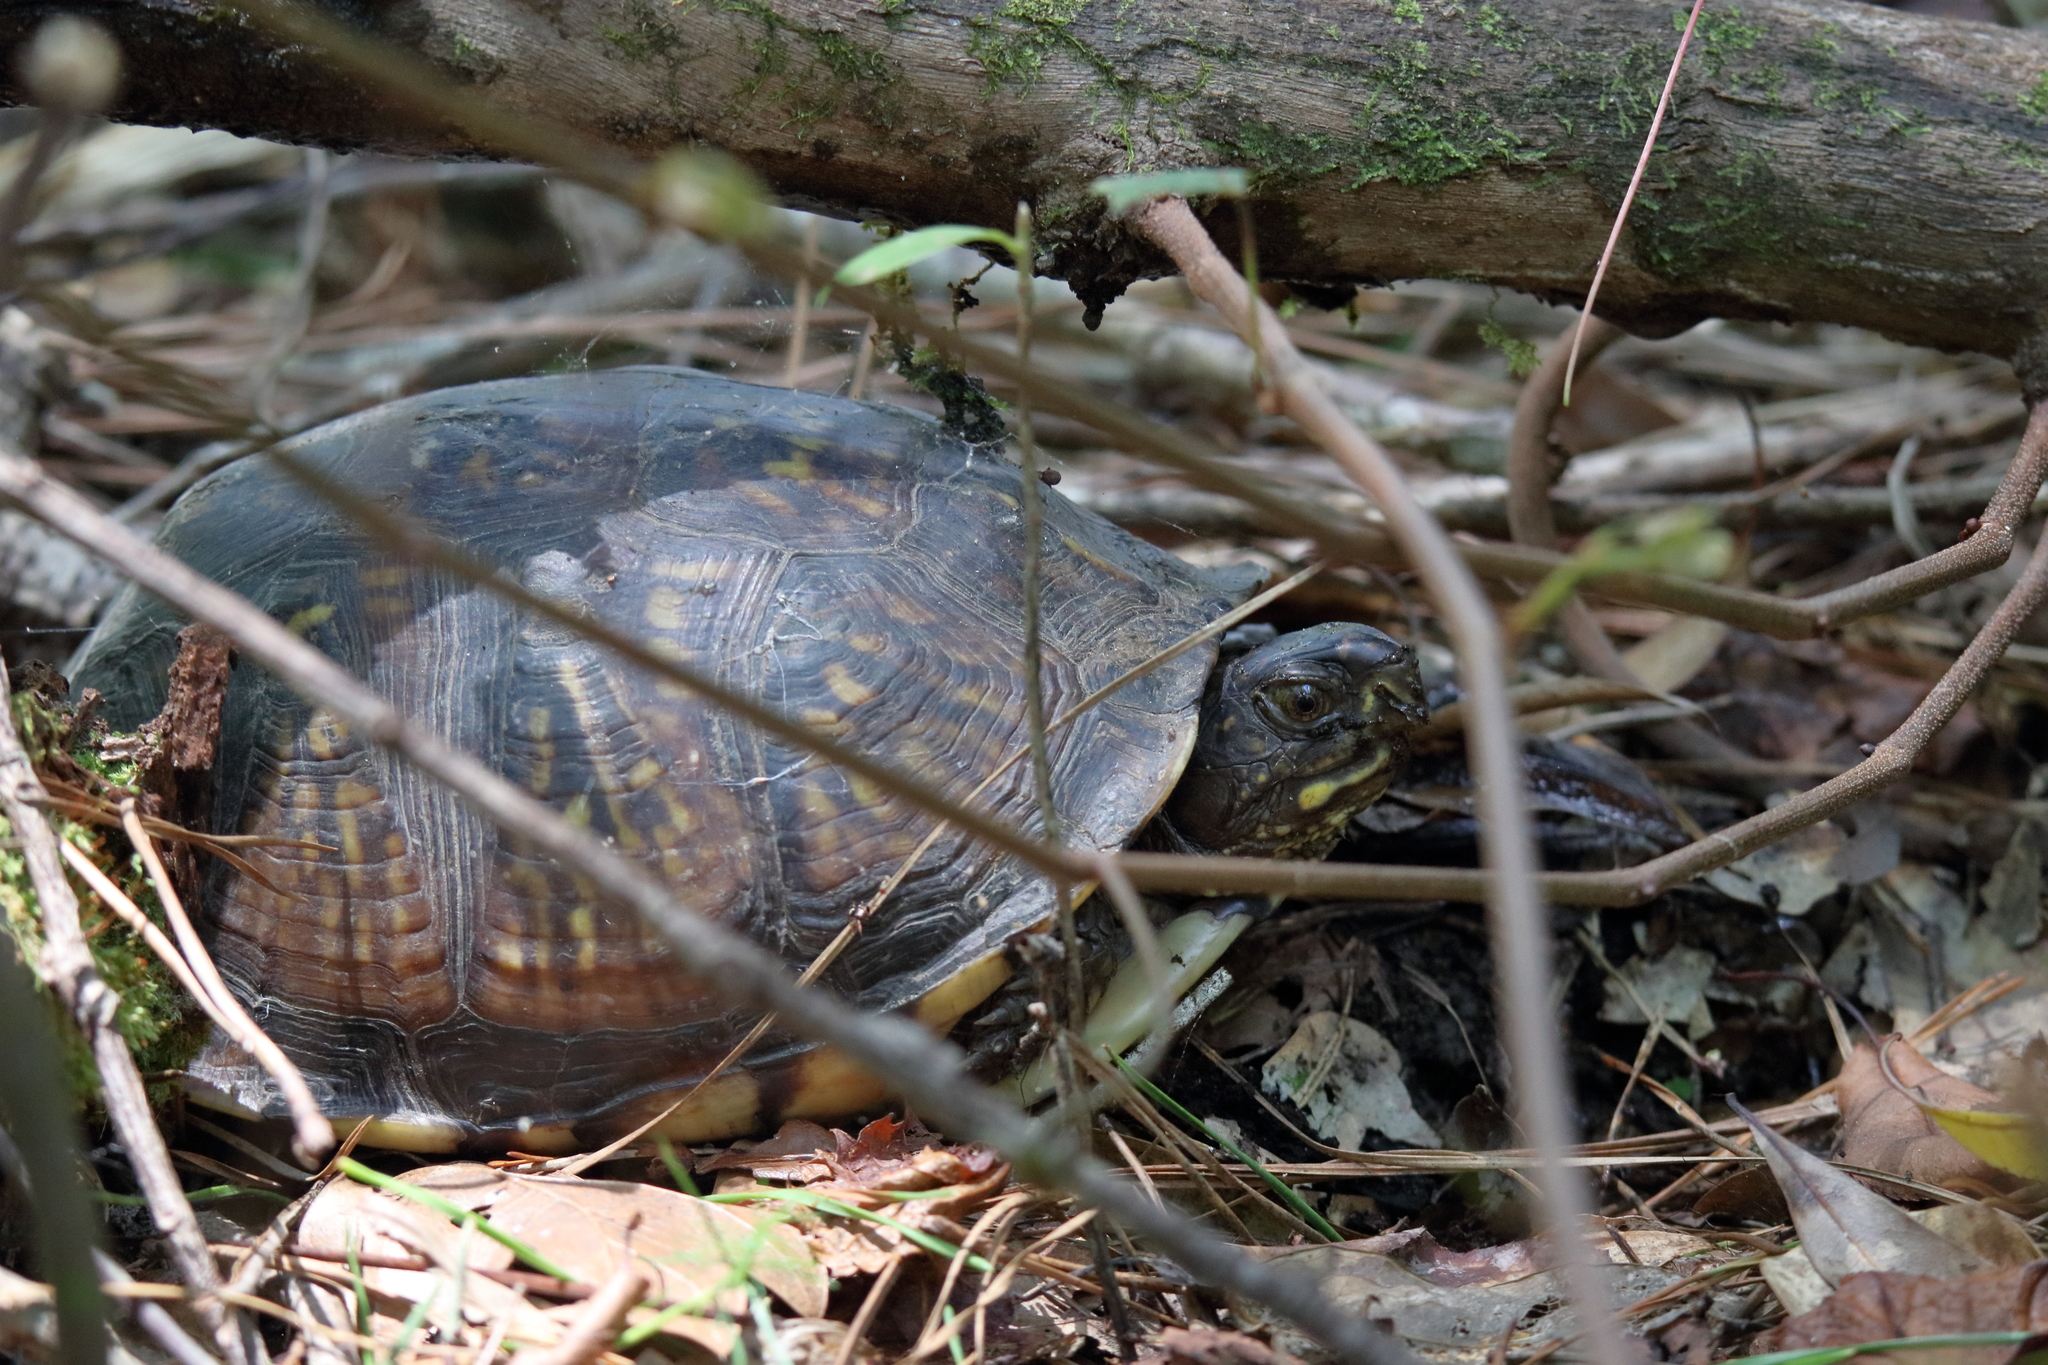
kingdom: Animalia
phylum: Chordata
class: Testudines
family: Emydidae
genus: Terrapene
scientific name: Terrapene carolina
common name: Common box turtle
